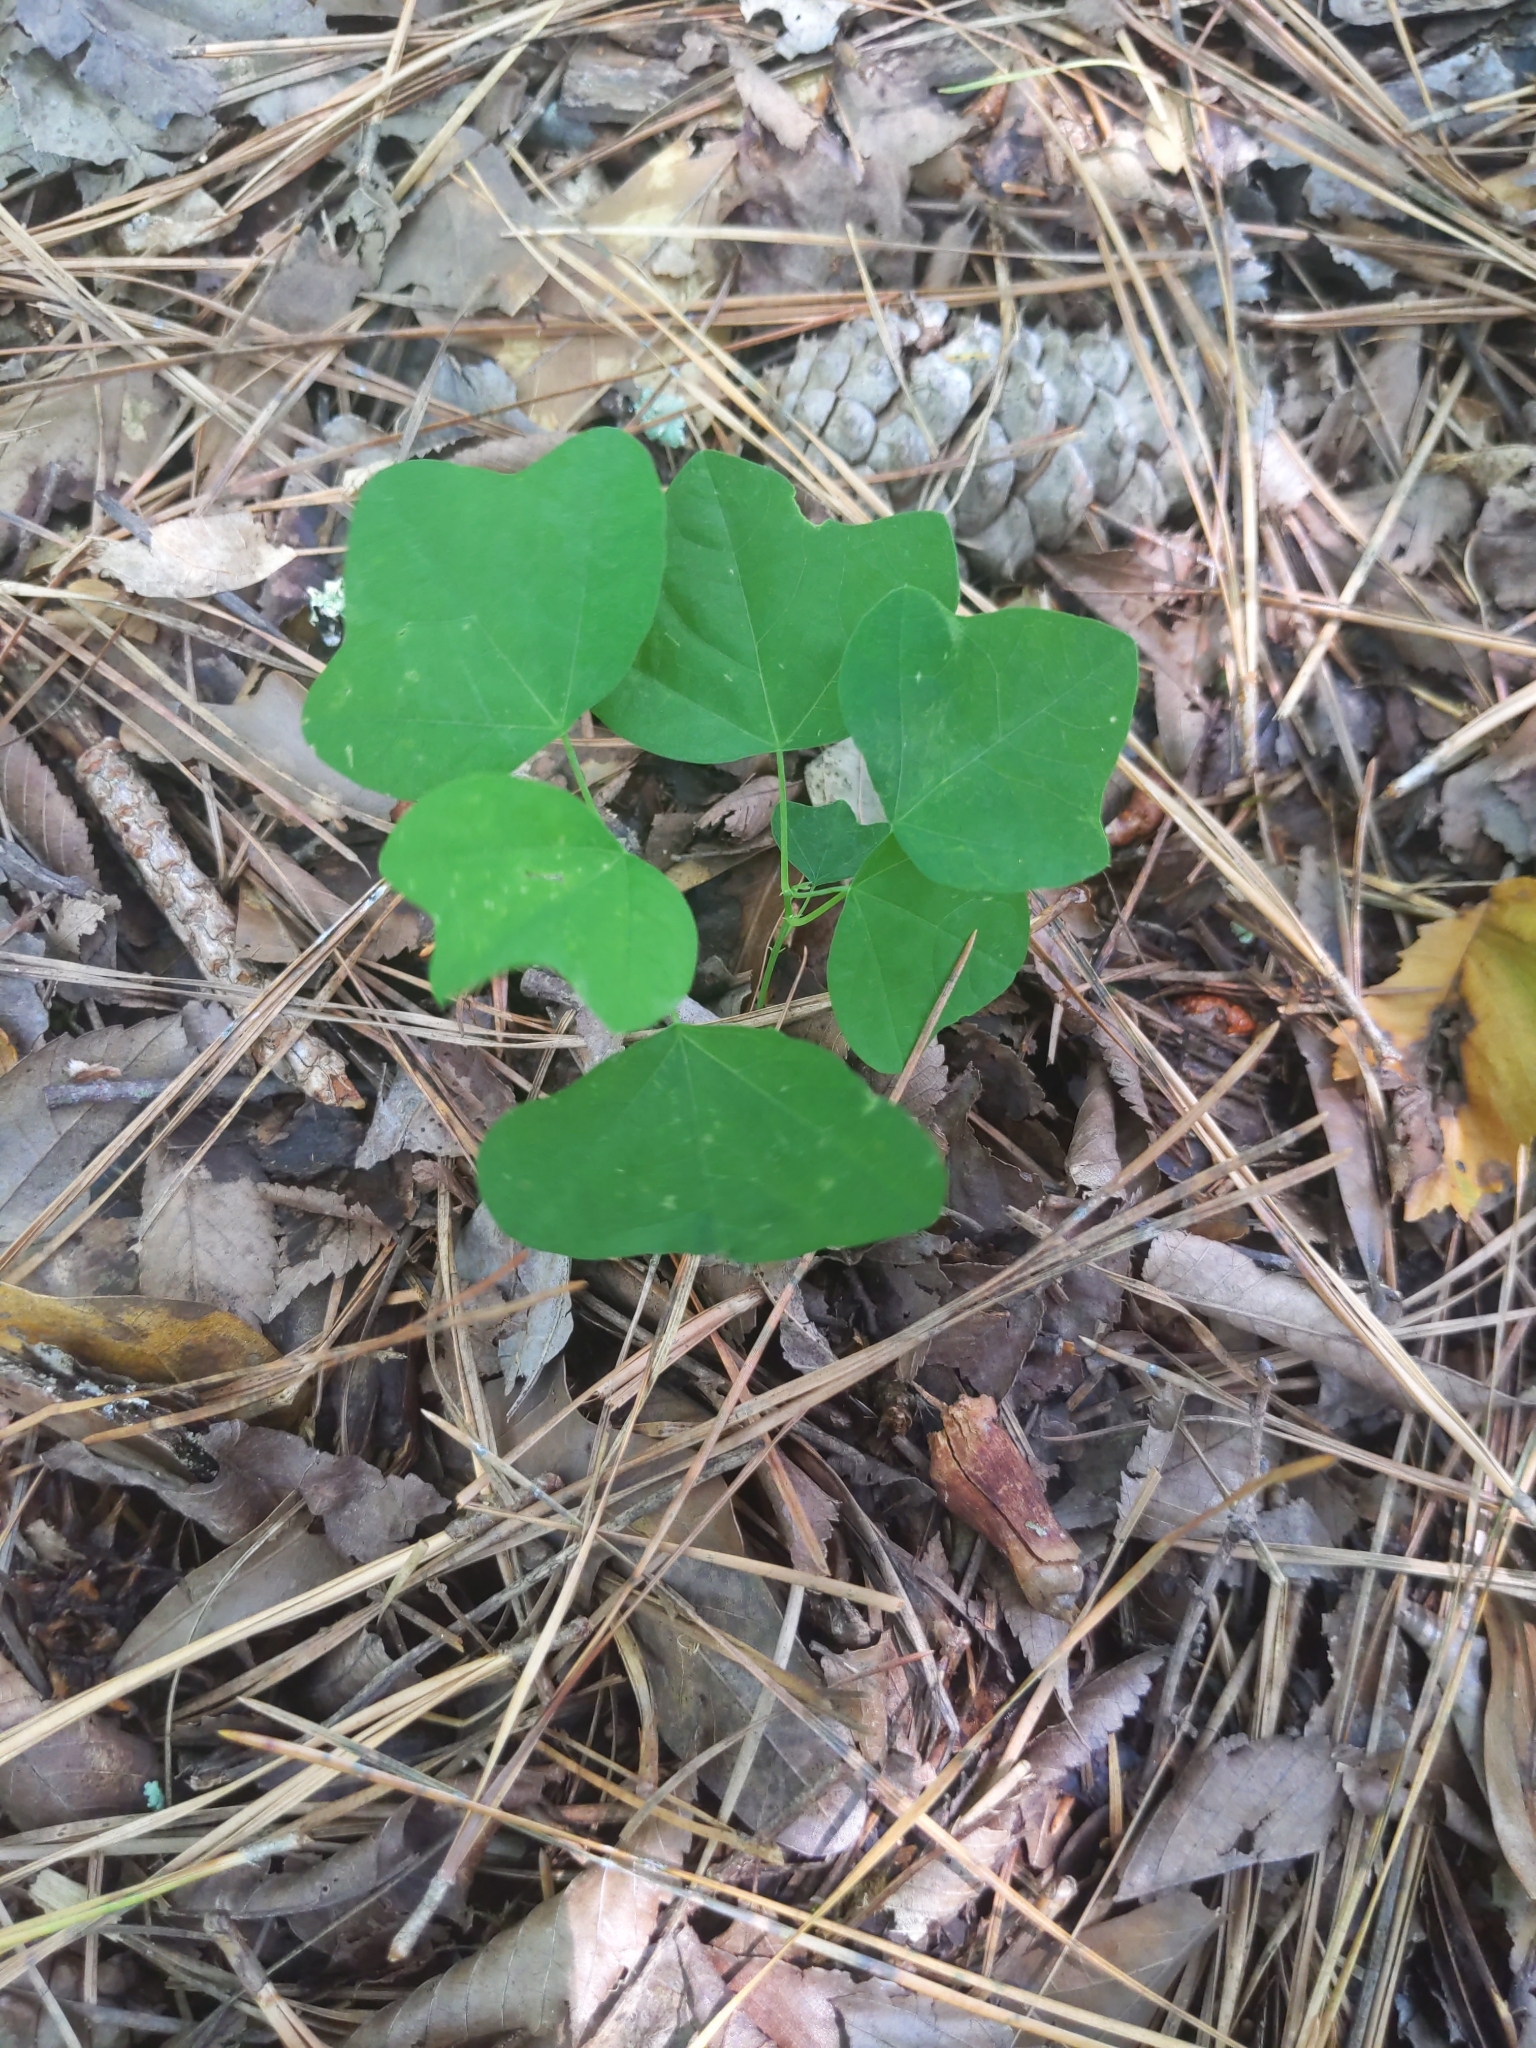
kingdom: Plantae
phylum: Tracheophyta
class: Magnoliopsida
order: Malpighiales
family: Passifloraceae
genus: Passiflora
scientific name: Passiflora lutea
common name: Yellow passionflower
